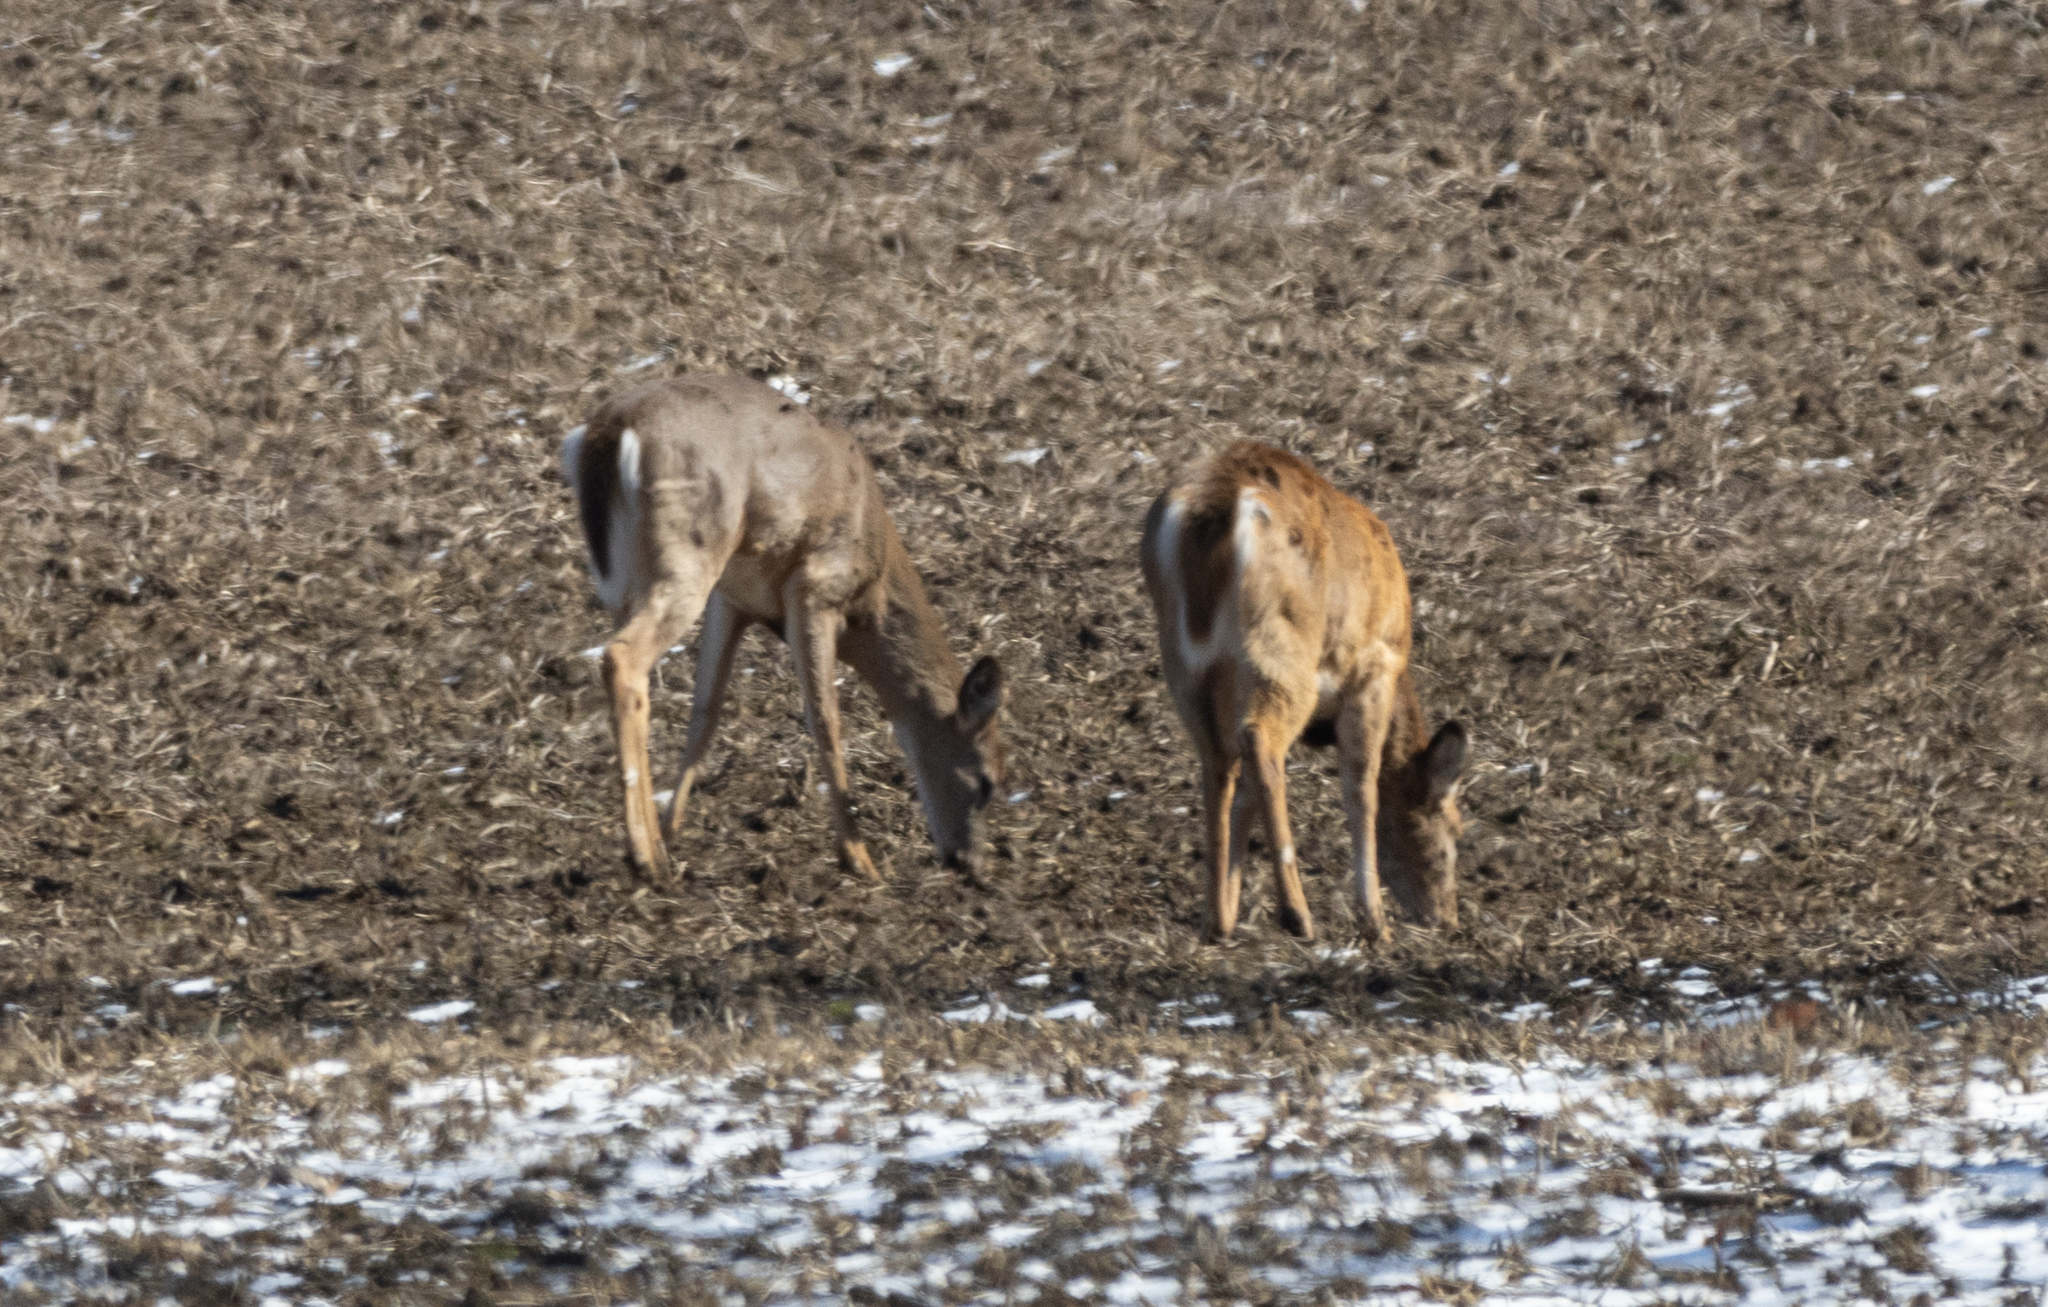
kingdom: Animalia
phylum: Chordata
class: Mammalia
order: Artiodactyla
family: Cervidae
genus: Odocoileus
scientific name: Odocoileus virginianus
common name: White-tailed deer
